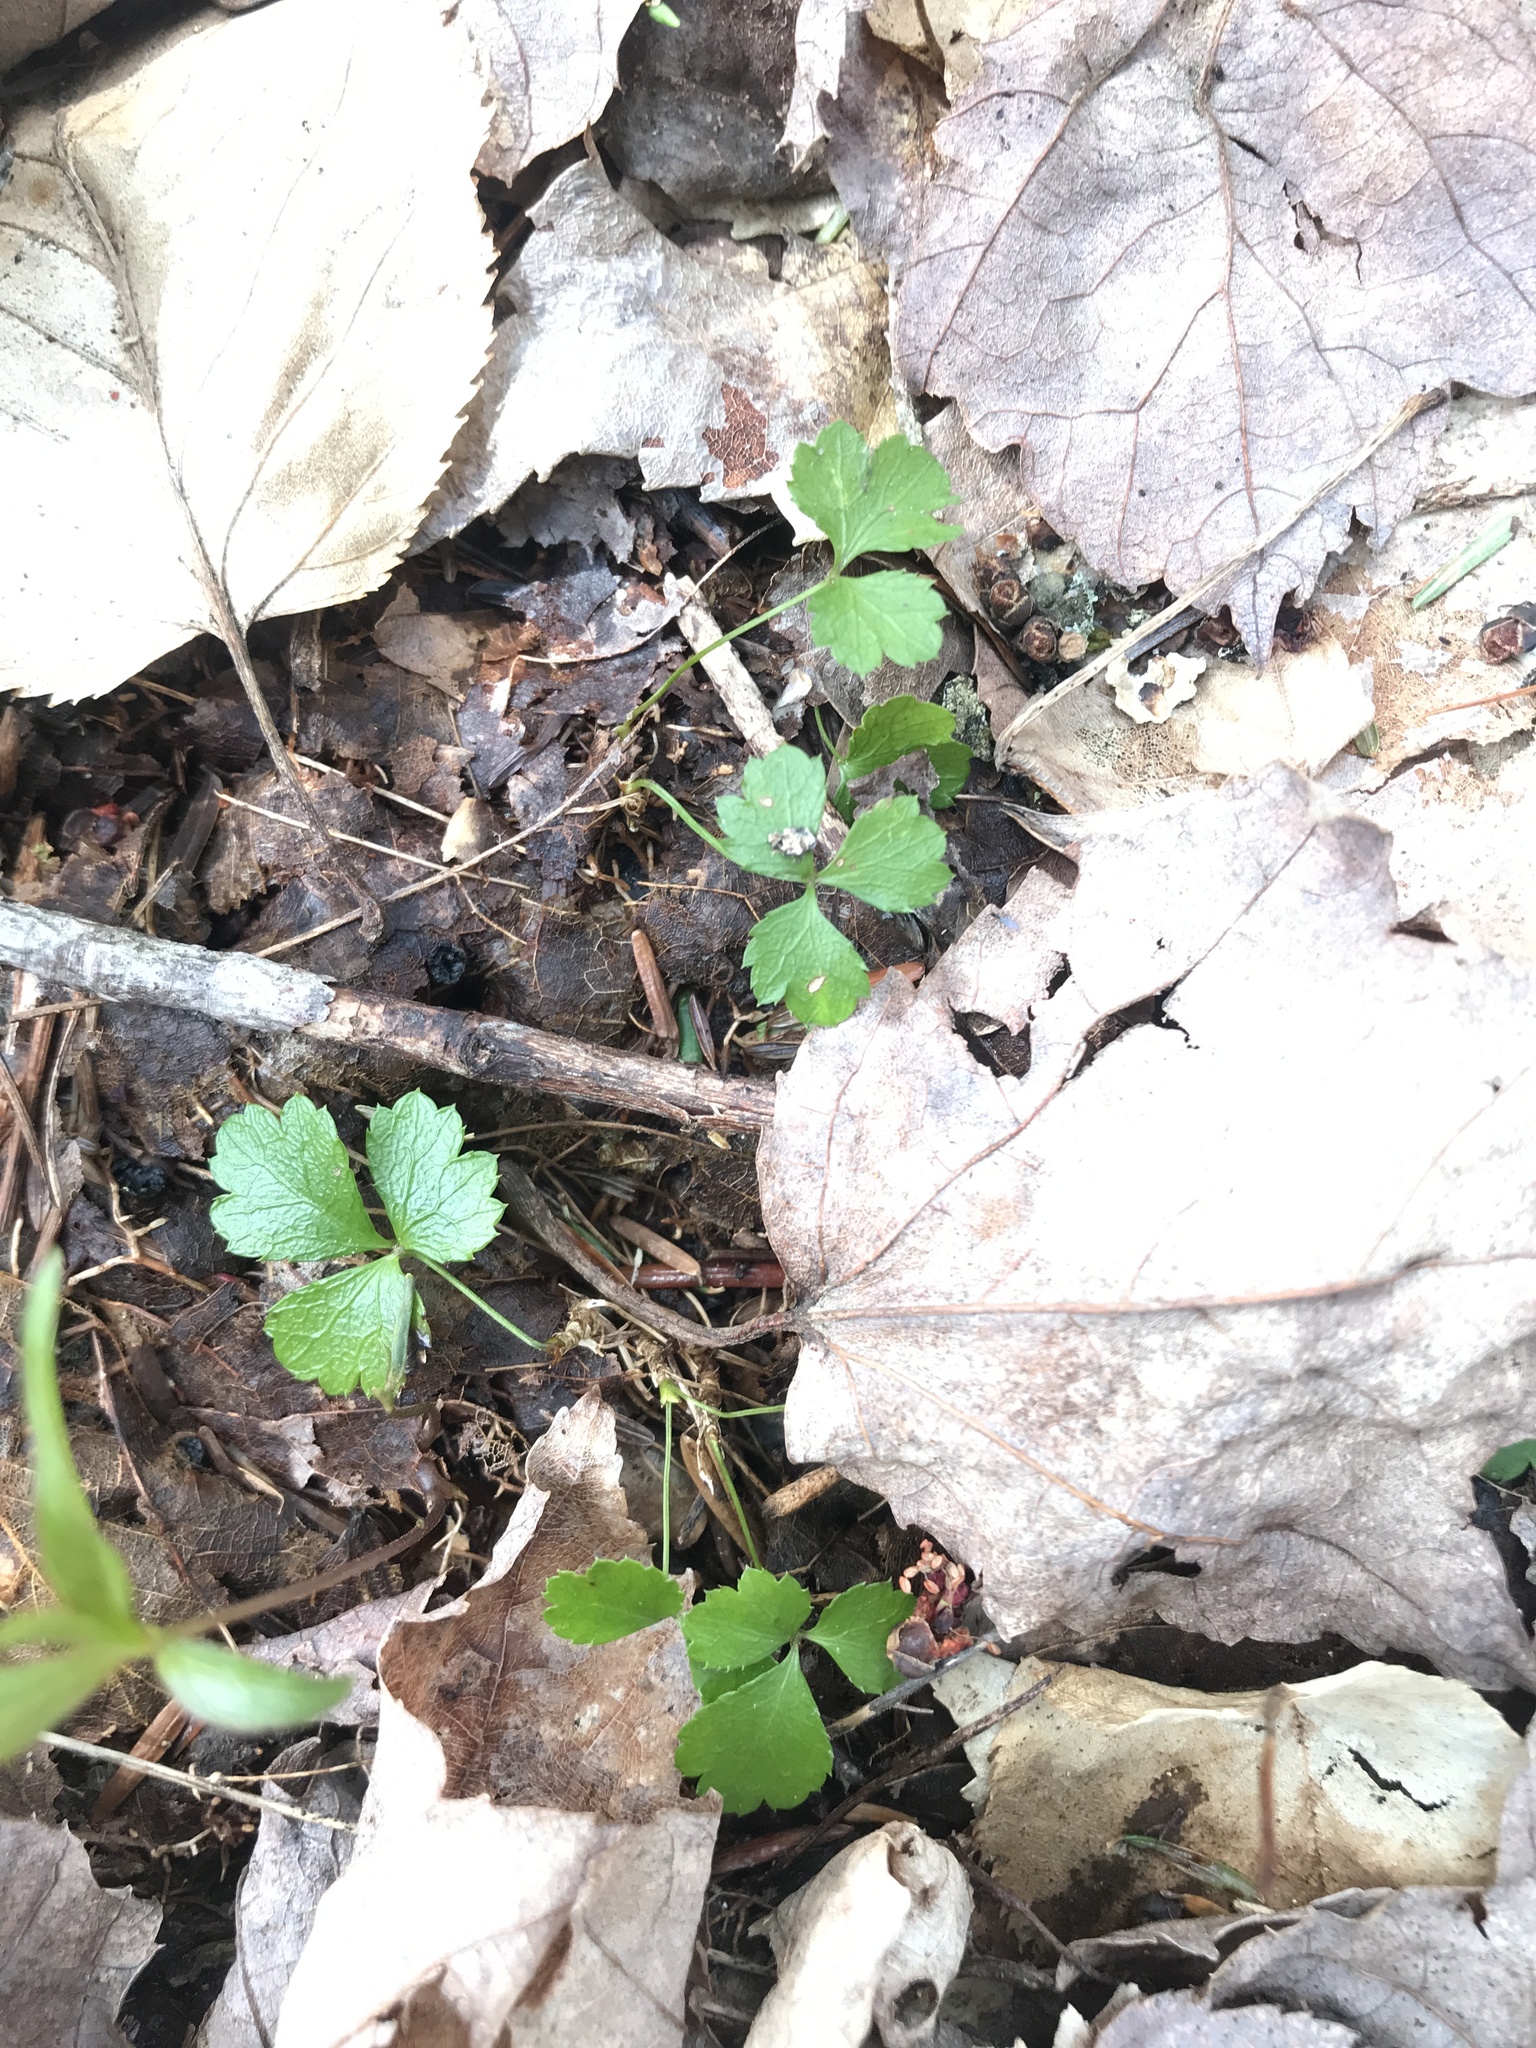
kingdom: Plantae
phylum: Tracheophyta
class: Magnoliopsida
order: Ranunculales
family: Ranunculaceae
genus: Coptis
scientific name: Coptis trifolia
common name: Canker-root
